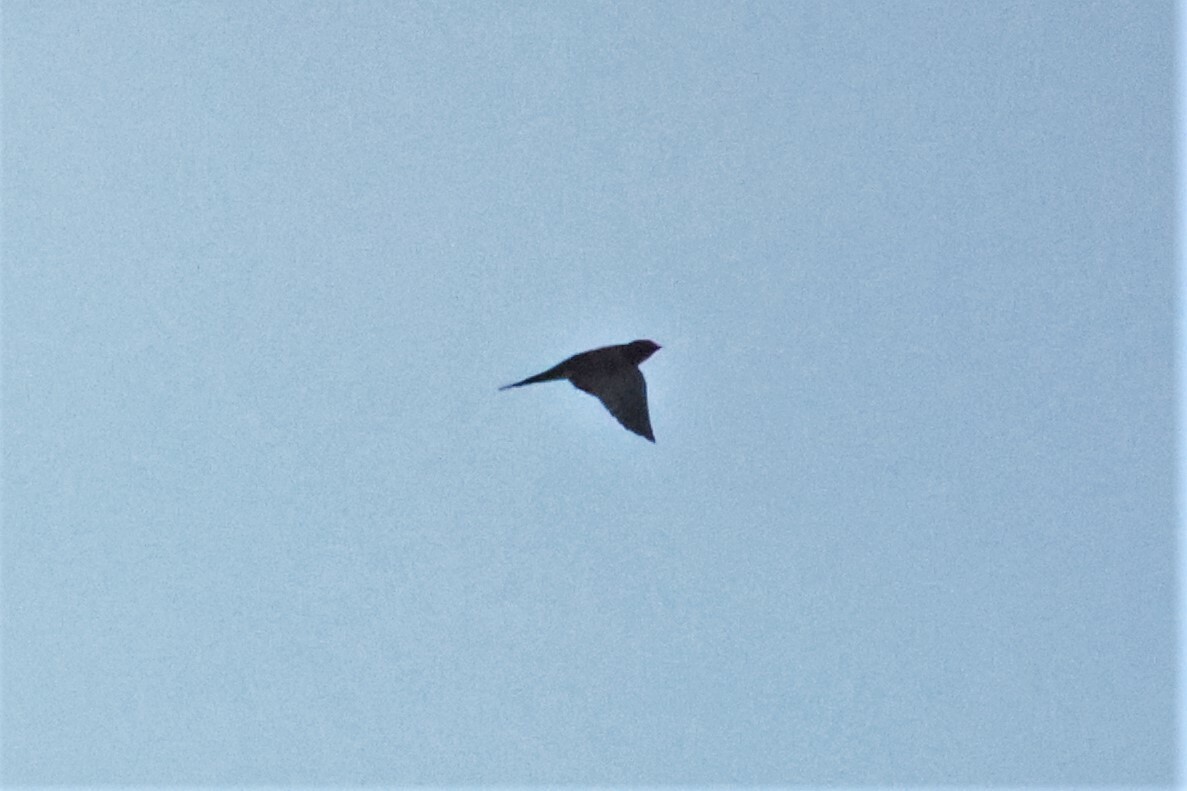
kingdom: Animalia
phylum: Chordata
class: Aves
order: Passeriformes
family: Hirundinidae
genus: Hirundo
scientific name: Hirundo rustica
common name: Barn swallow
